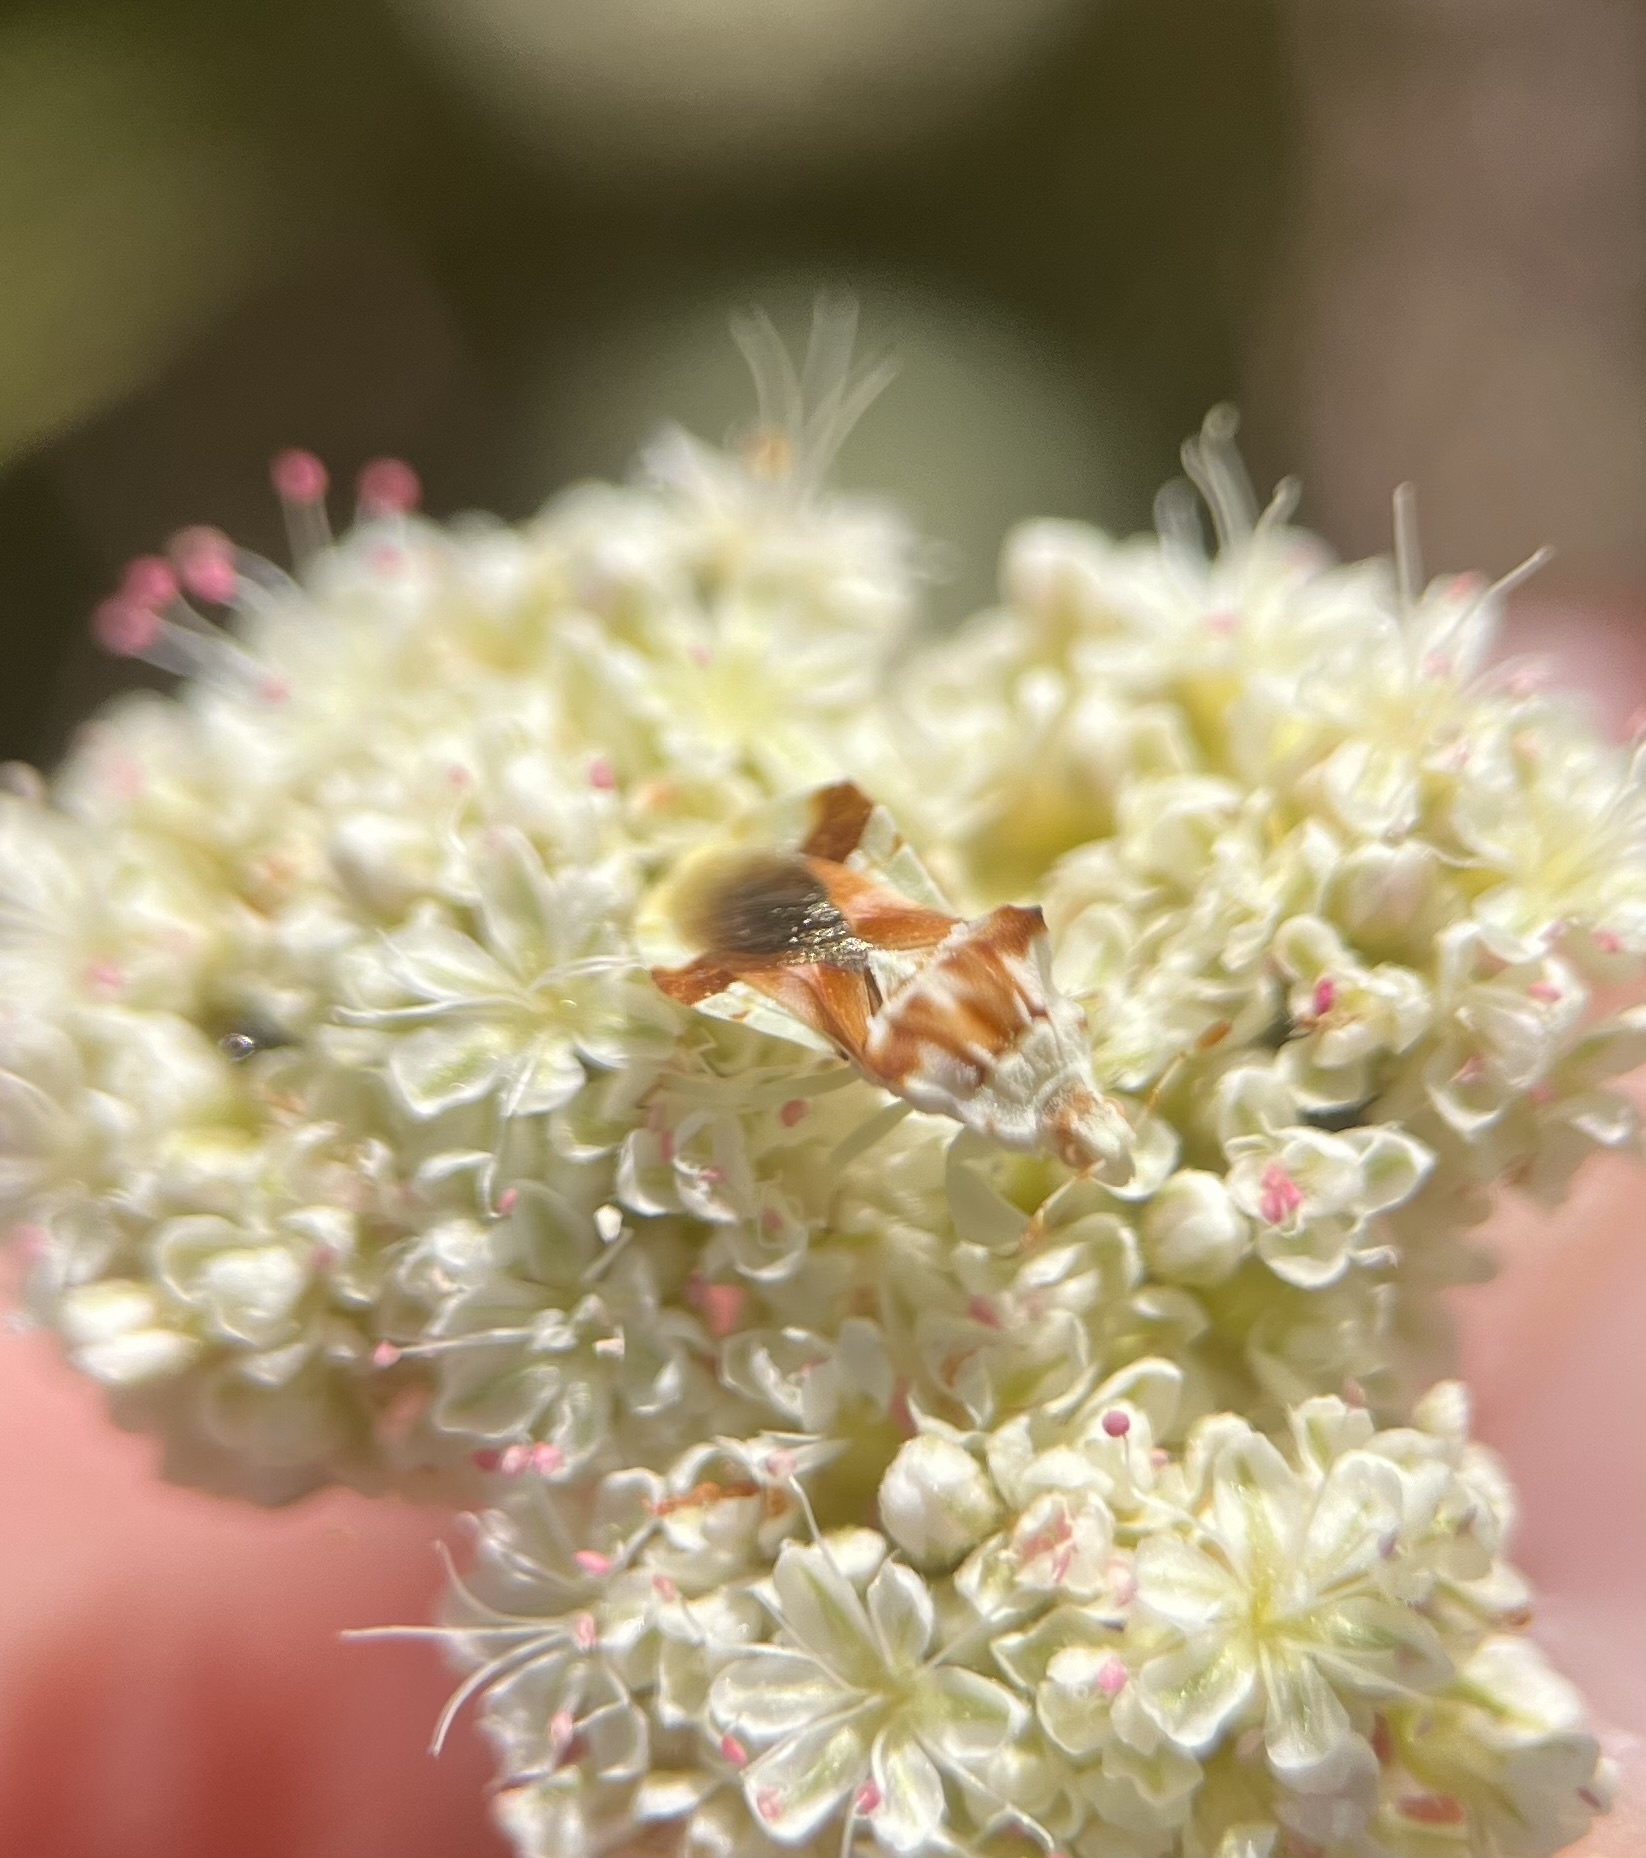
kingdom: Animalia
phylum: Arthropoda
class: Insecta
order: Hemiptera
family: Reduviidae
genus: Phymata
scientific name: Phymata pacifica
